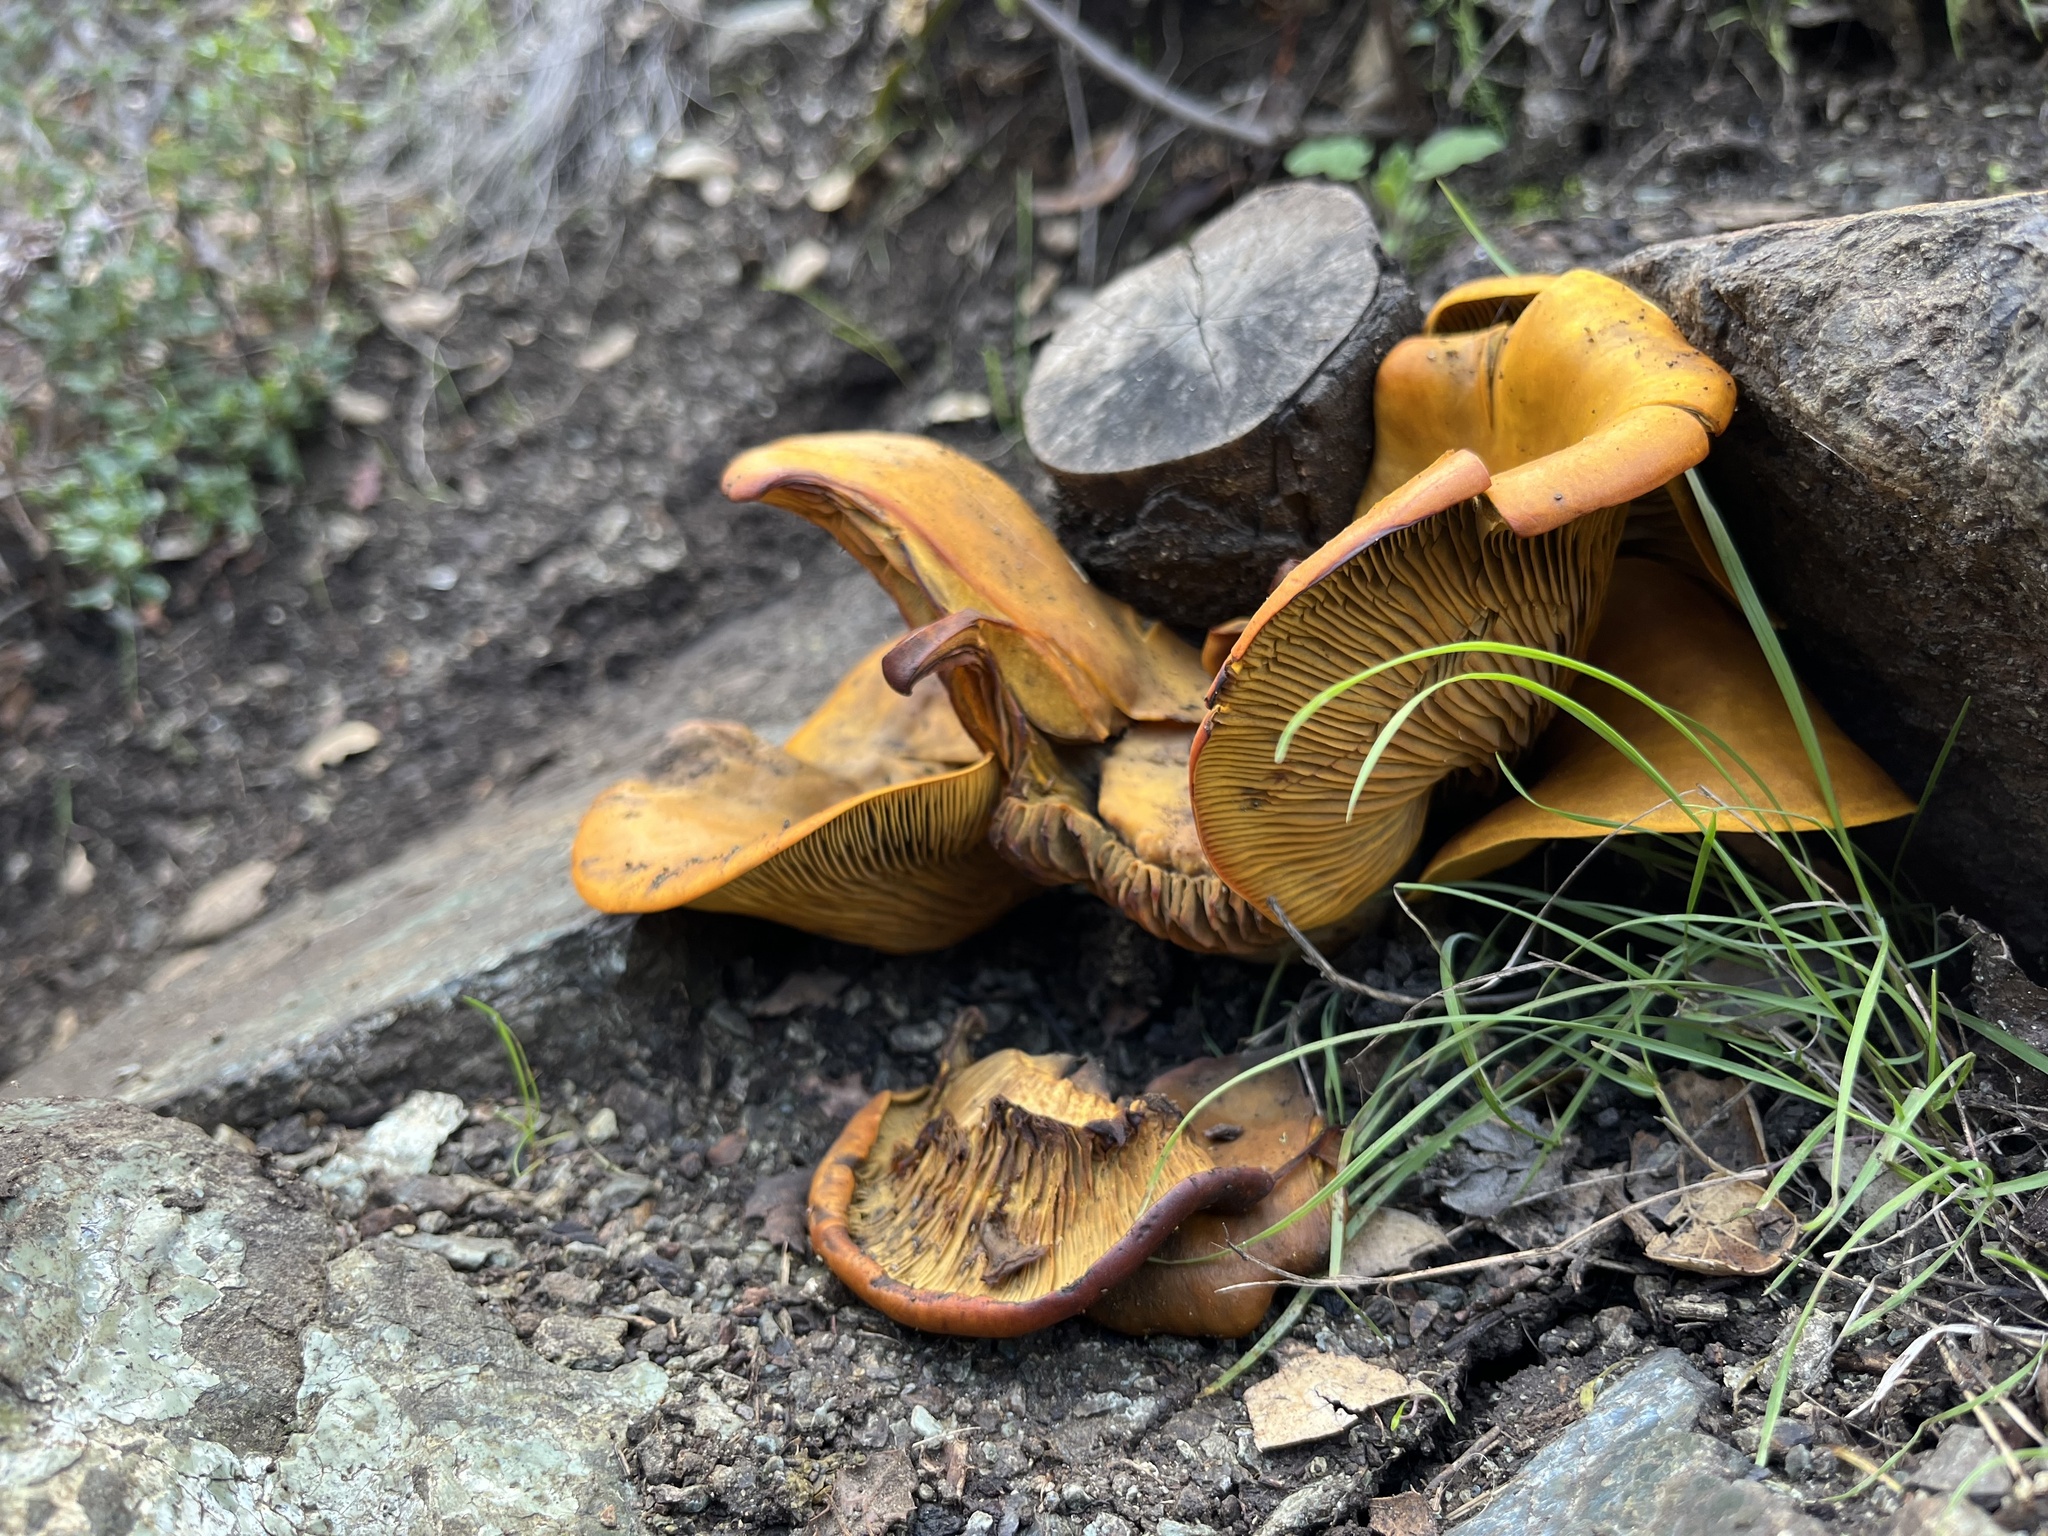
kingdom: Fungi
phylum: Basidiomycota
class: Agaricomycetes
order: Agaricales
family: Omphalotaceae
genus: Omphalotus
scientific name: Omphalotus olivascens
